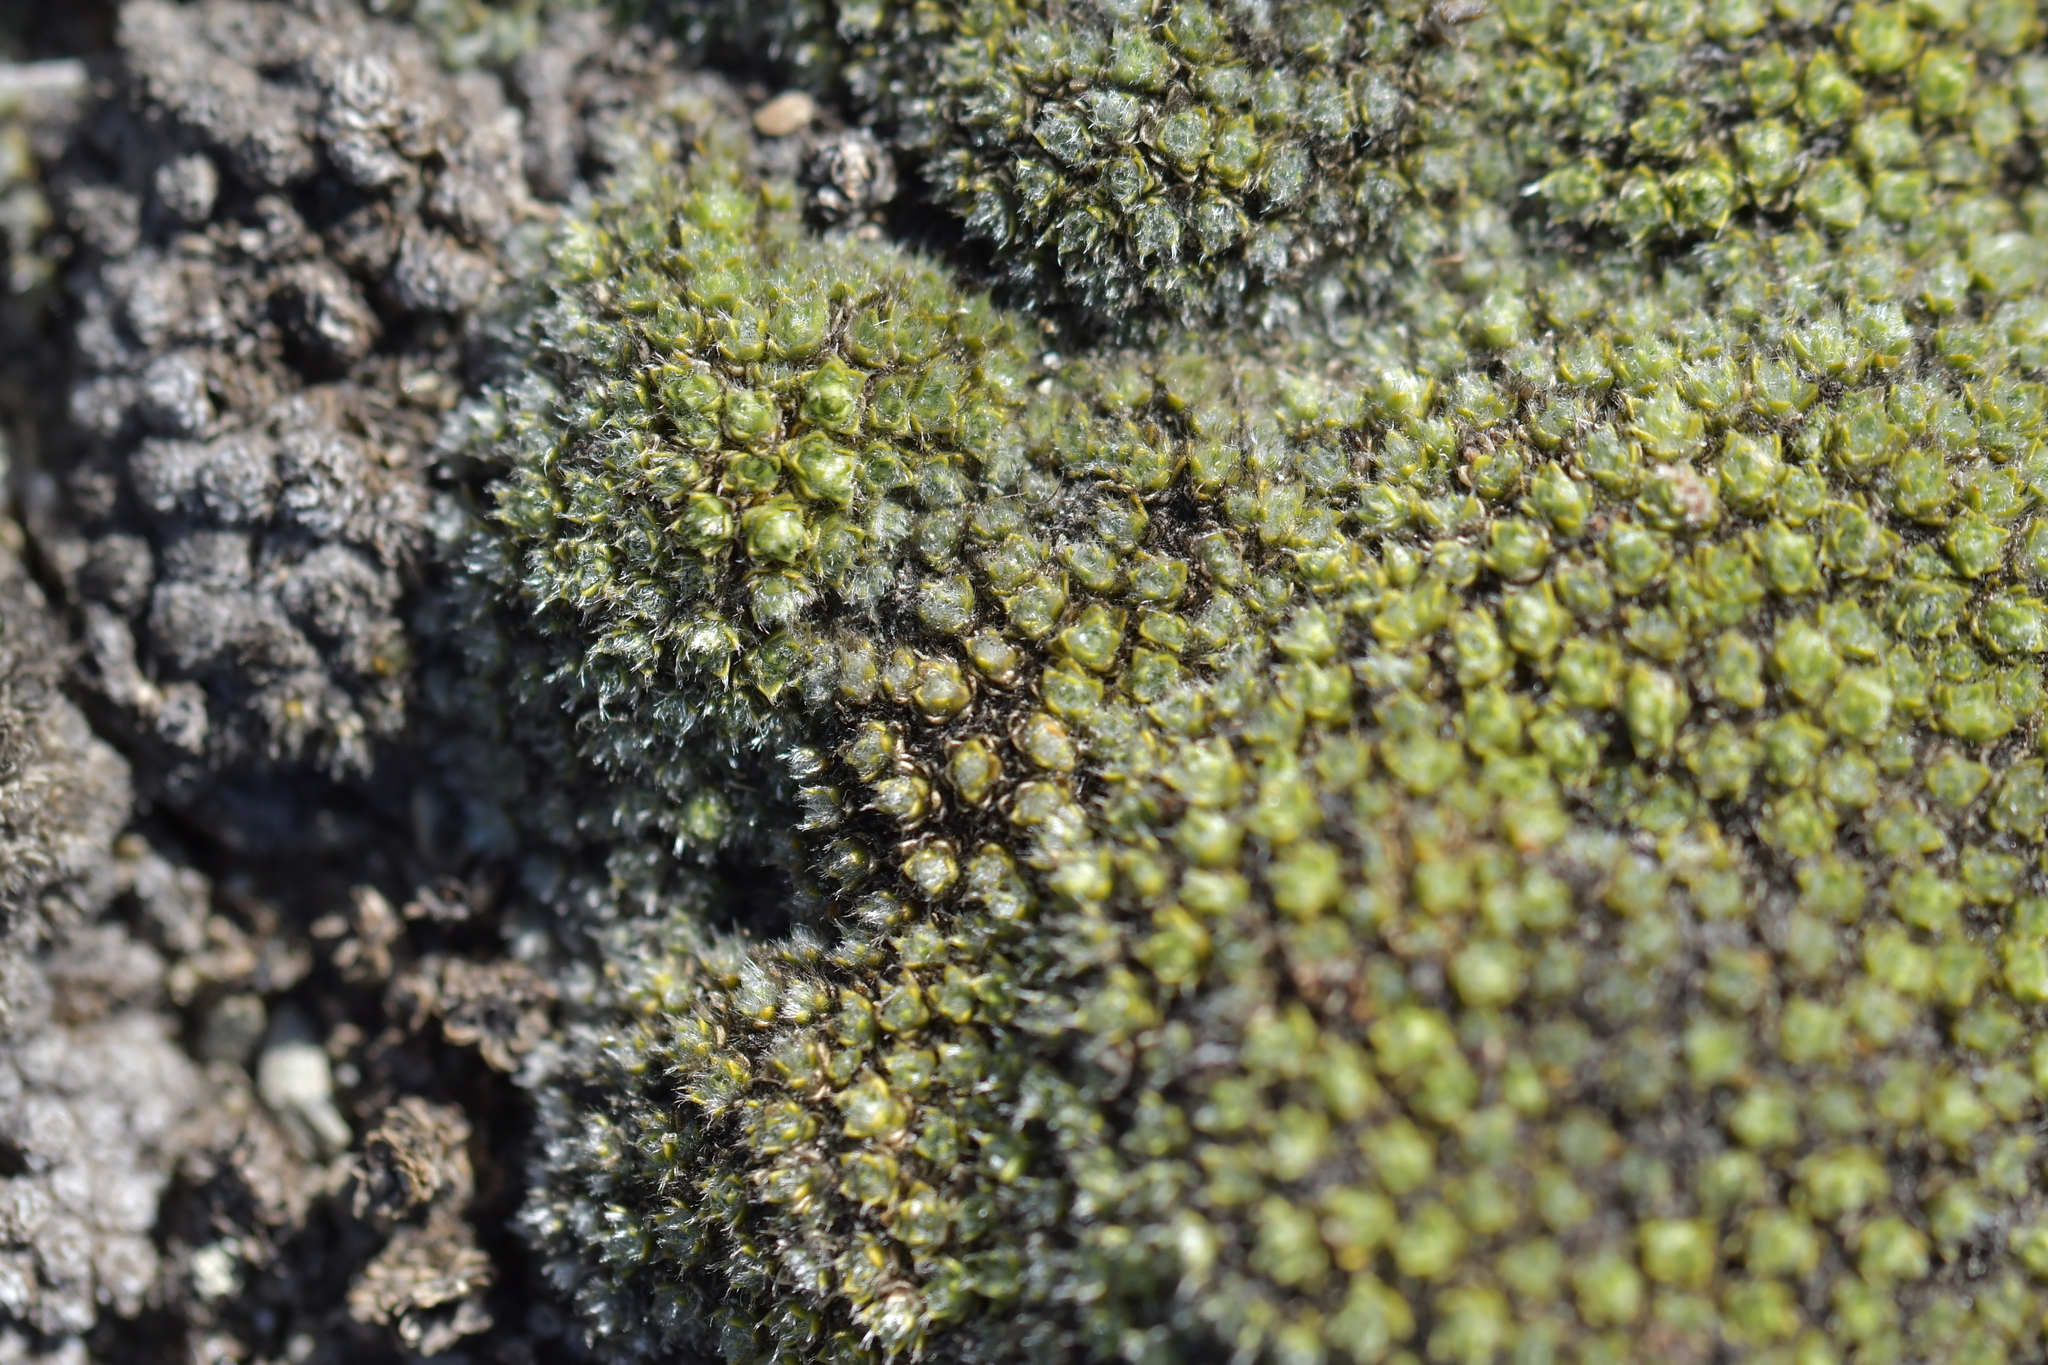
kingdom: Plantae
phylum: Tracheophyta
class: Magnoliopsida
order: Lamiales
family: Plantaginaceae
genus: Veronica
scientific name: Veronica thomsonii
